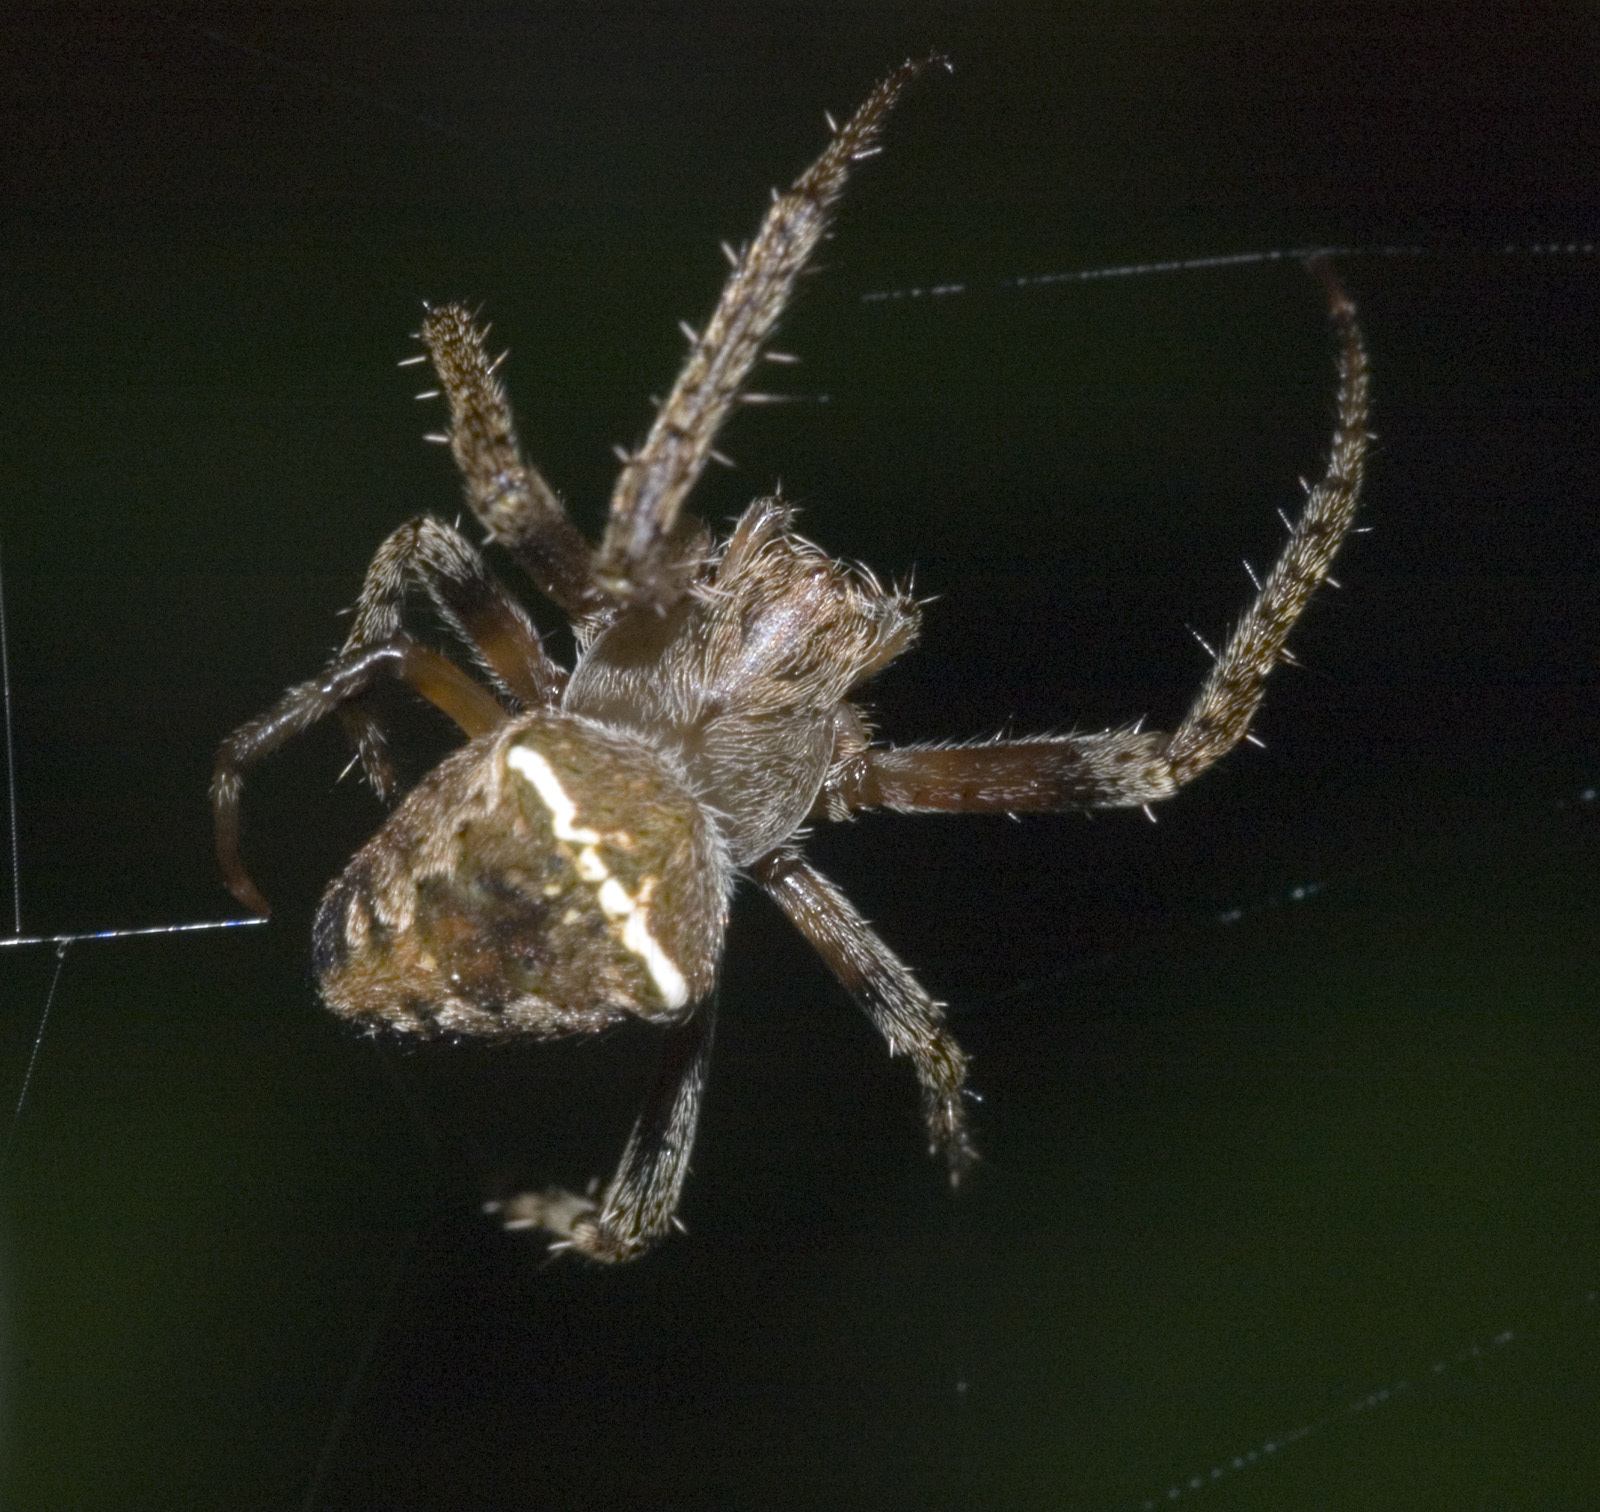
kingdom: Animalia
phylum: Arthropoda
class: Arachnida
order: Araneae
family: Araneidae
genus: Zealaranea
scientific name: Zealaranea crassa
